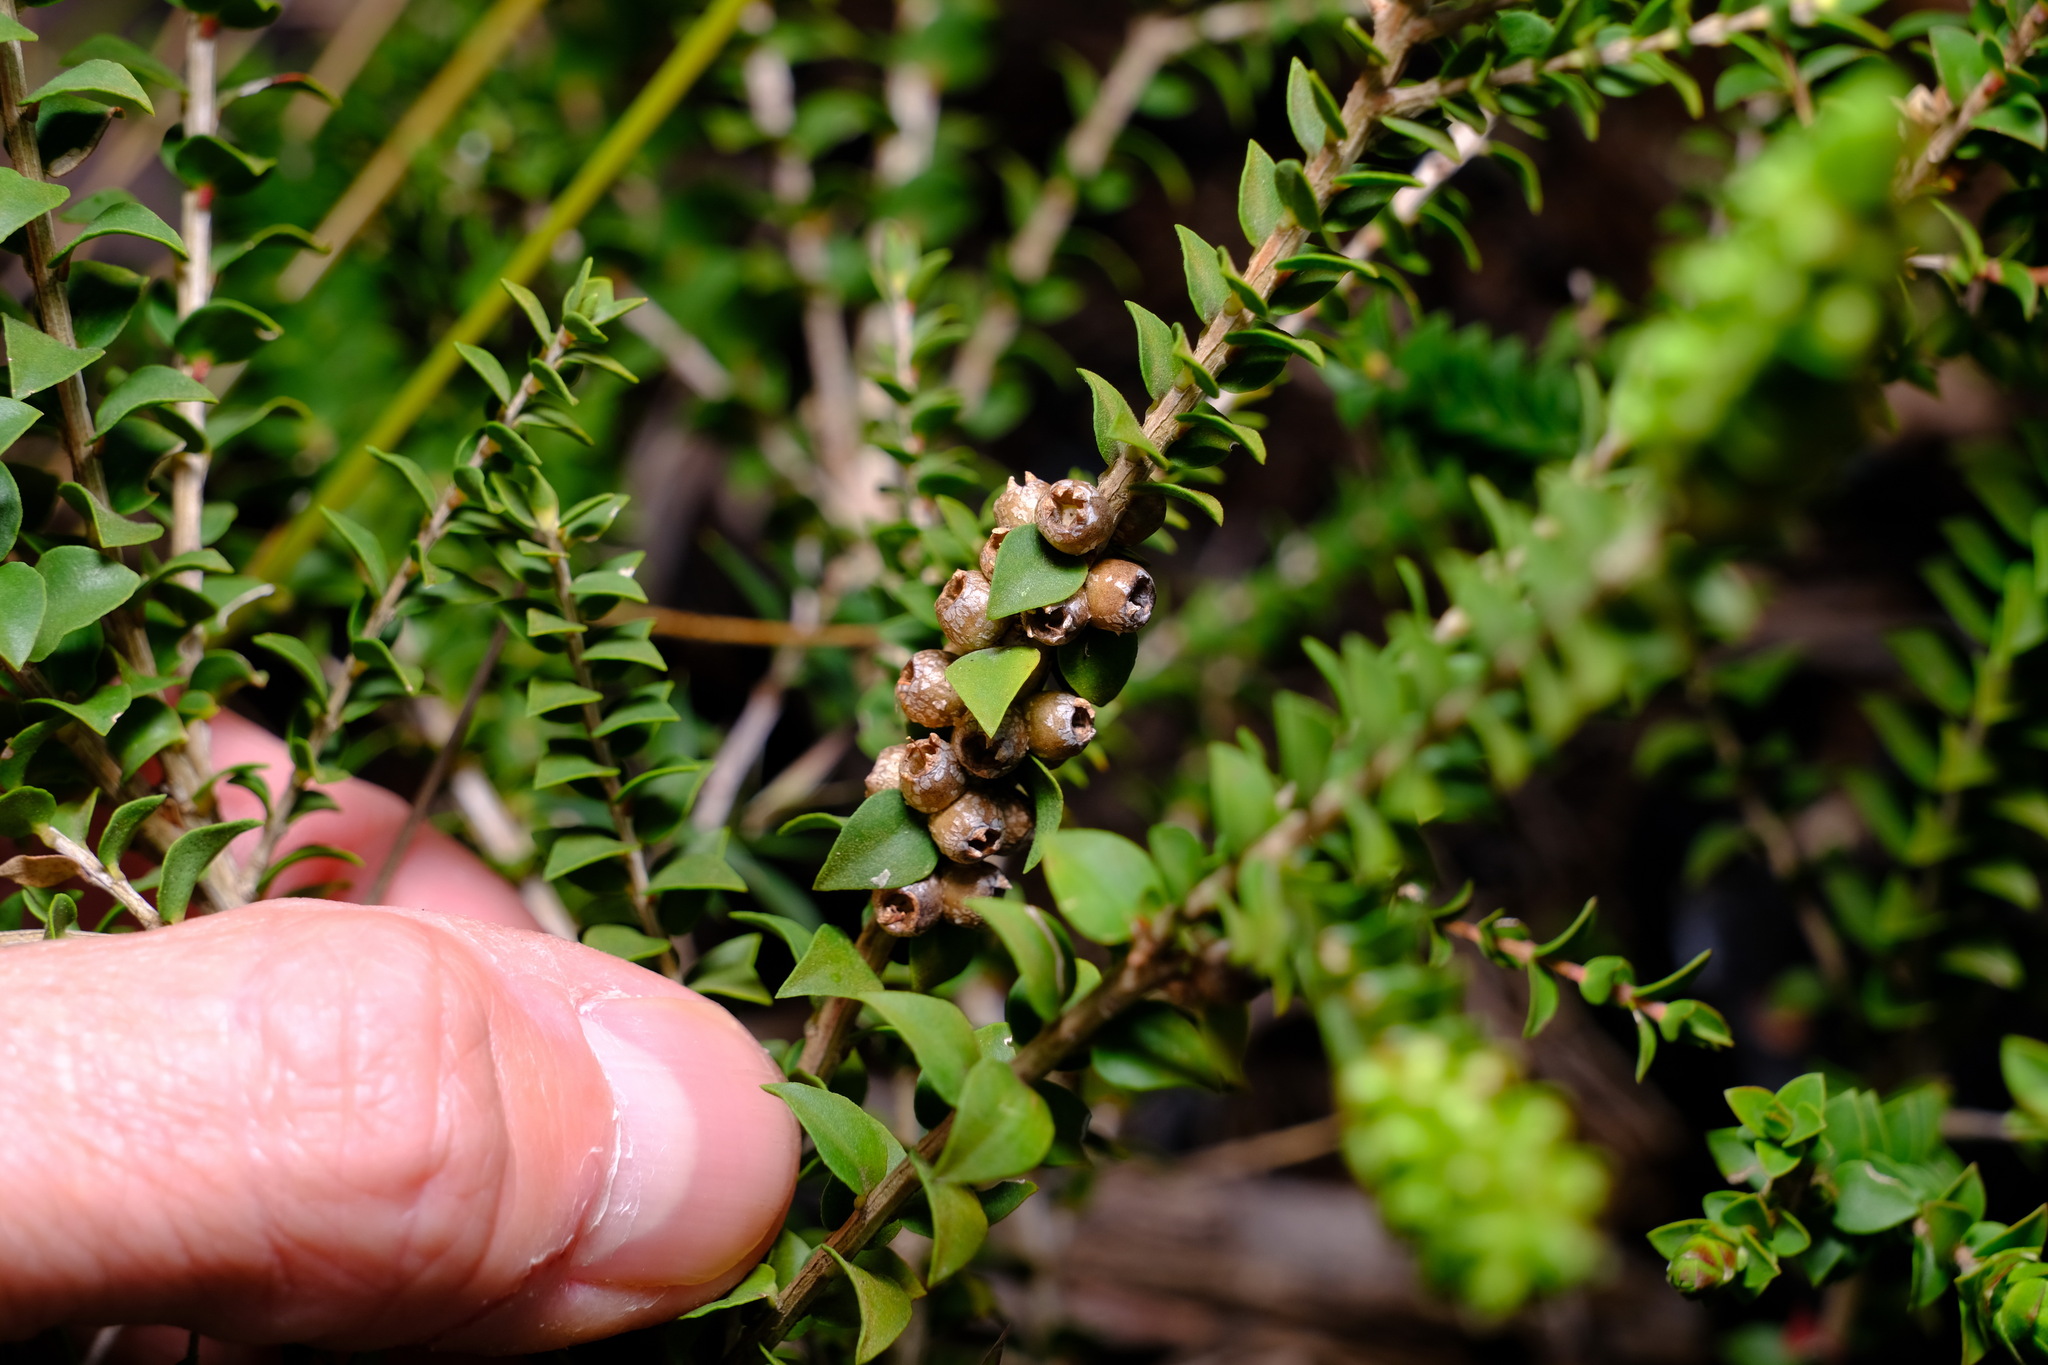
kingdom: Plantae
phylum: Tracheophyta
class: Magnoliopsida
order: Myrtales
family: Myrtaceae
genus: Melaleuca
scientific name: Melaleuca squarrosa
